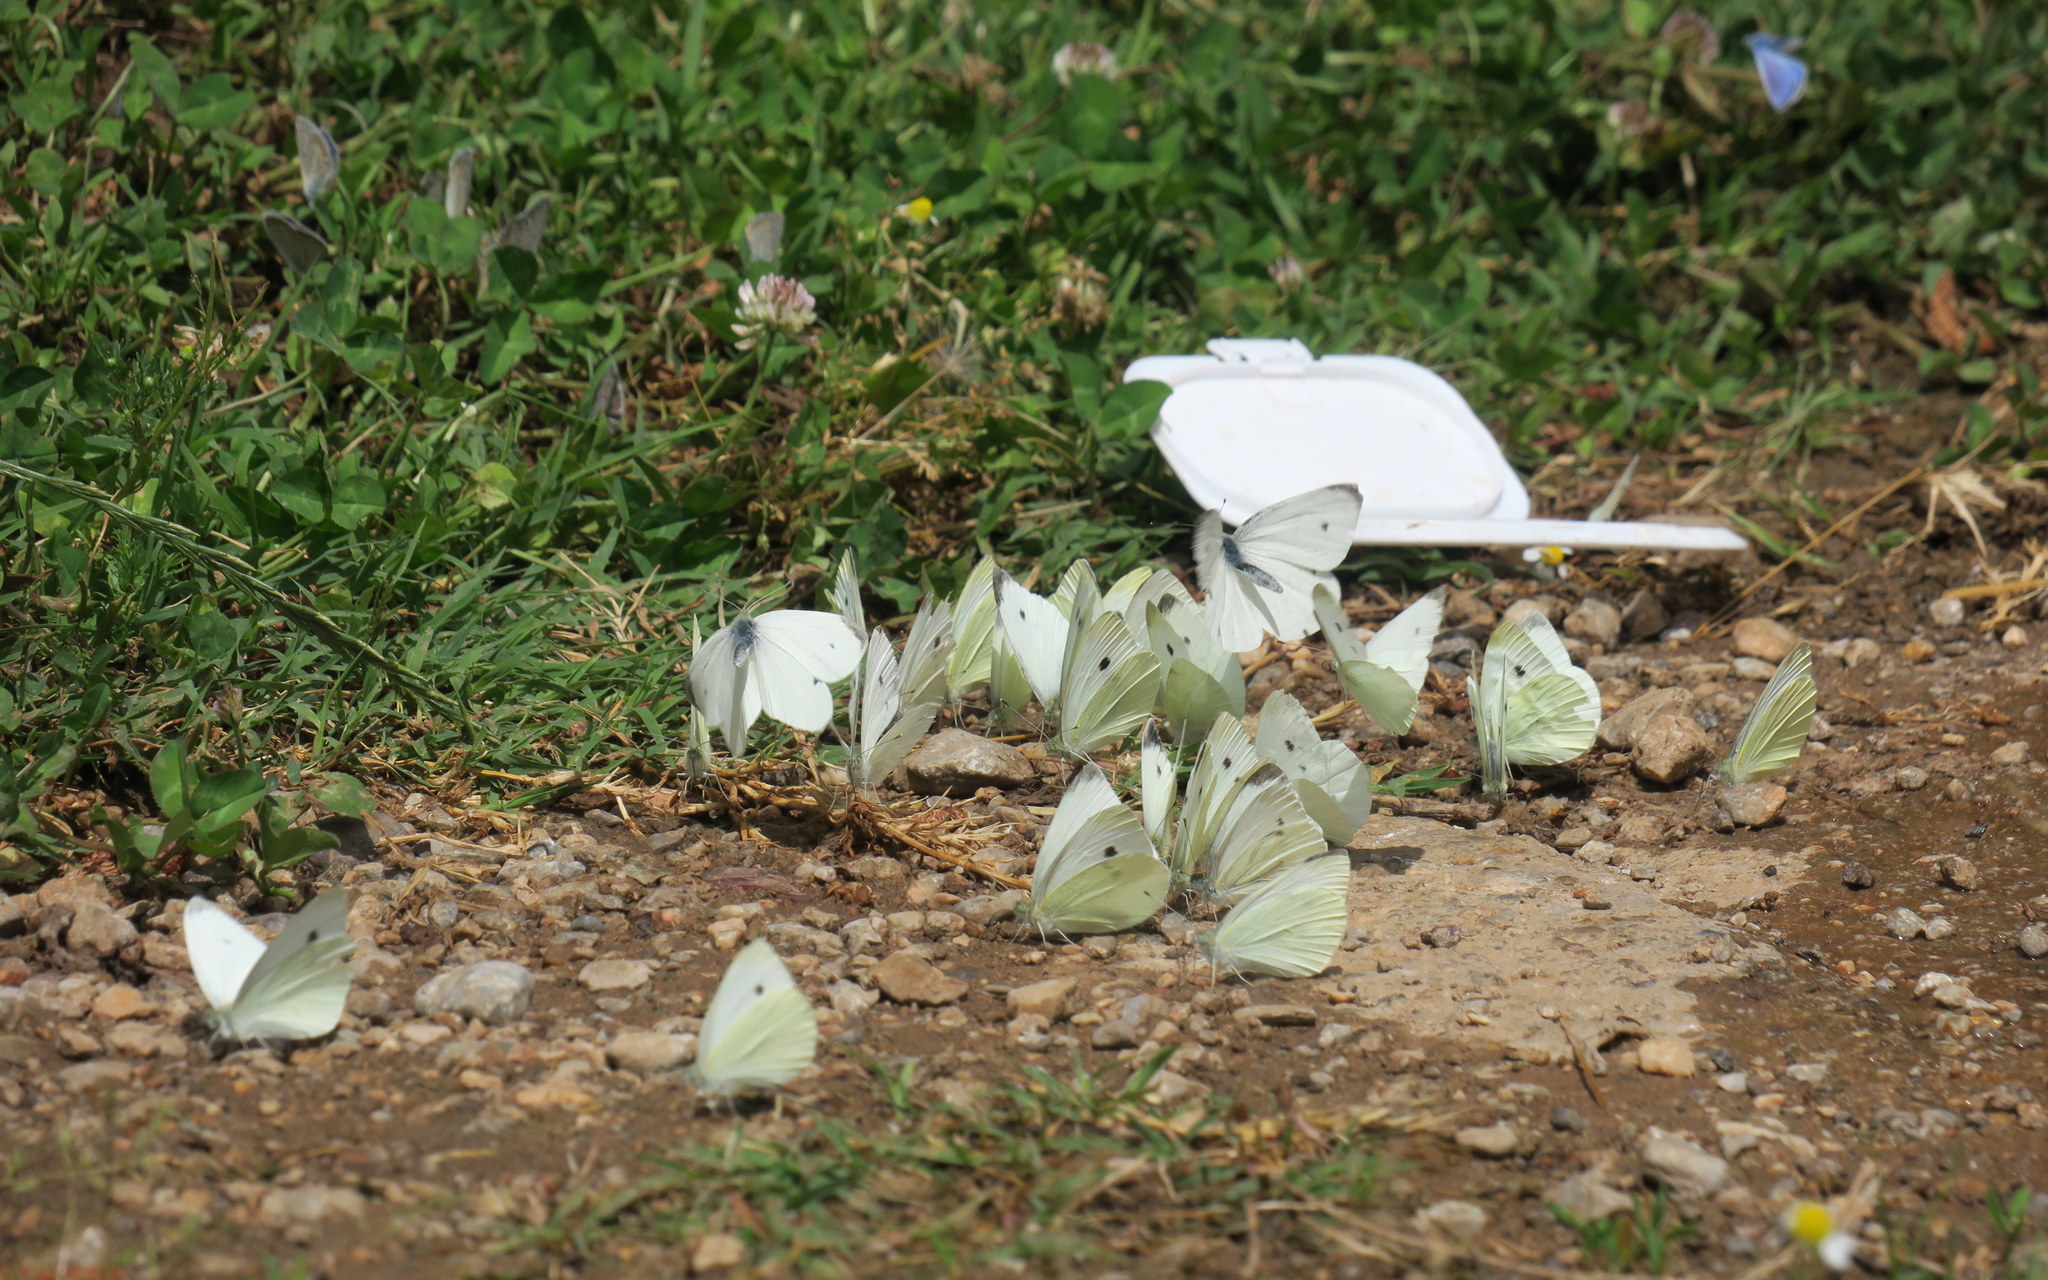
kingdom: Animalia
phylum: Arthropoda
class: Insecta
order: Lepidoptera
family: Pieridae
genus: Pieris
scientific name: Pieris rapae
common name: Small white
